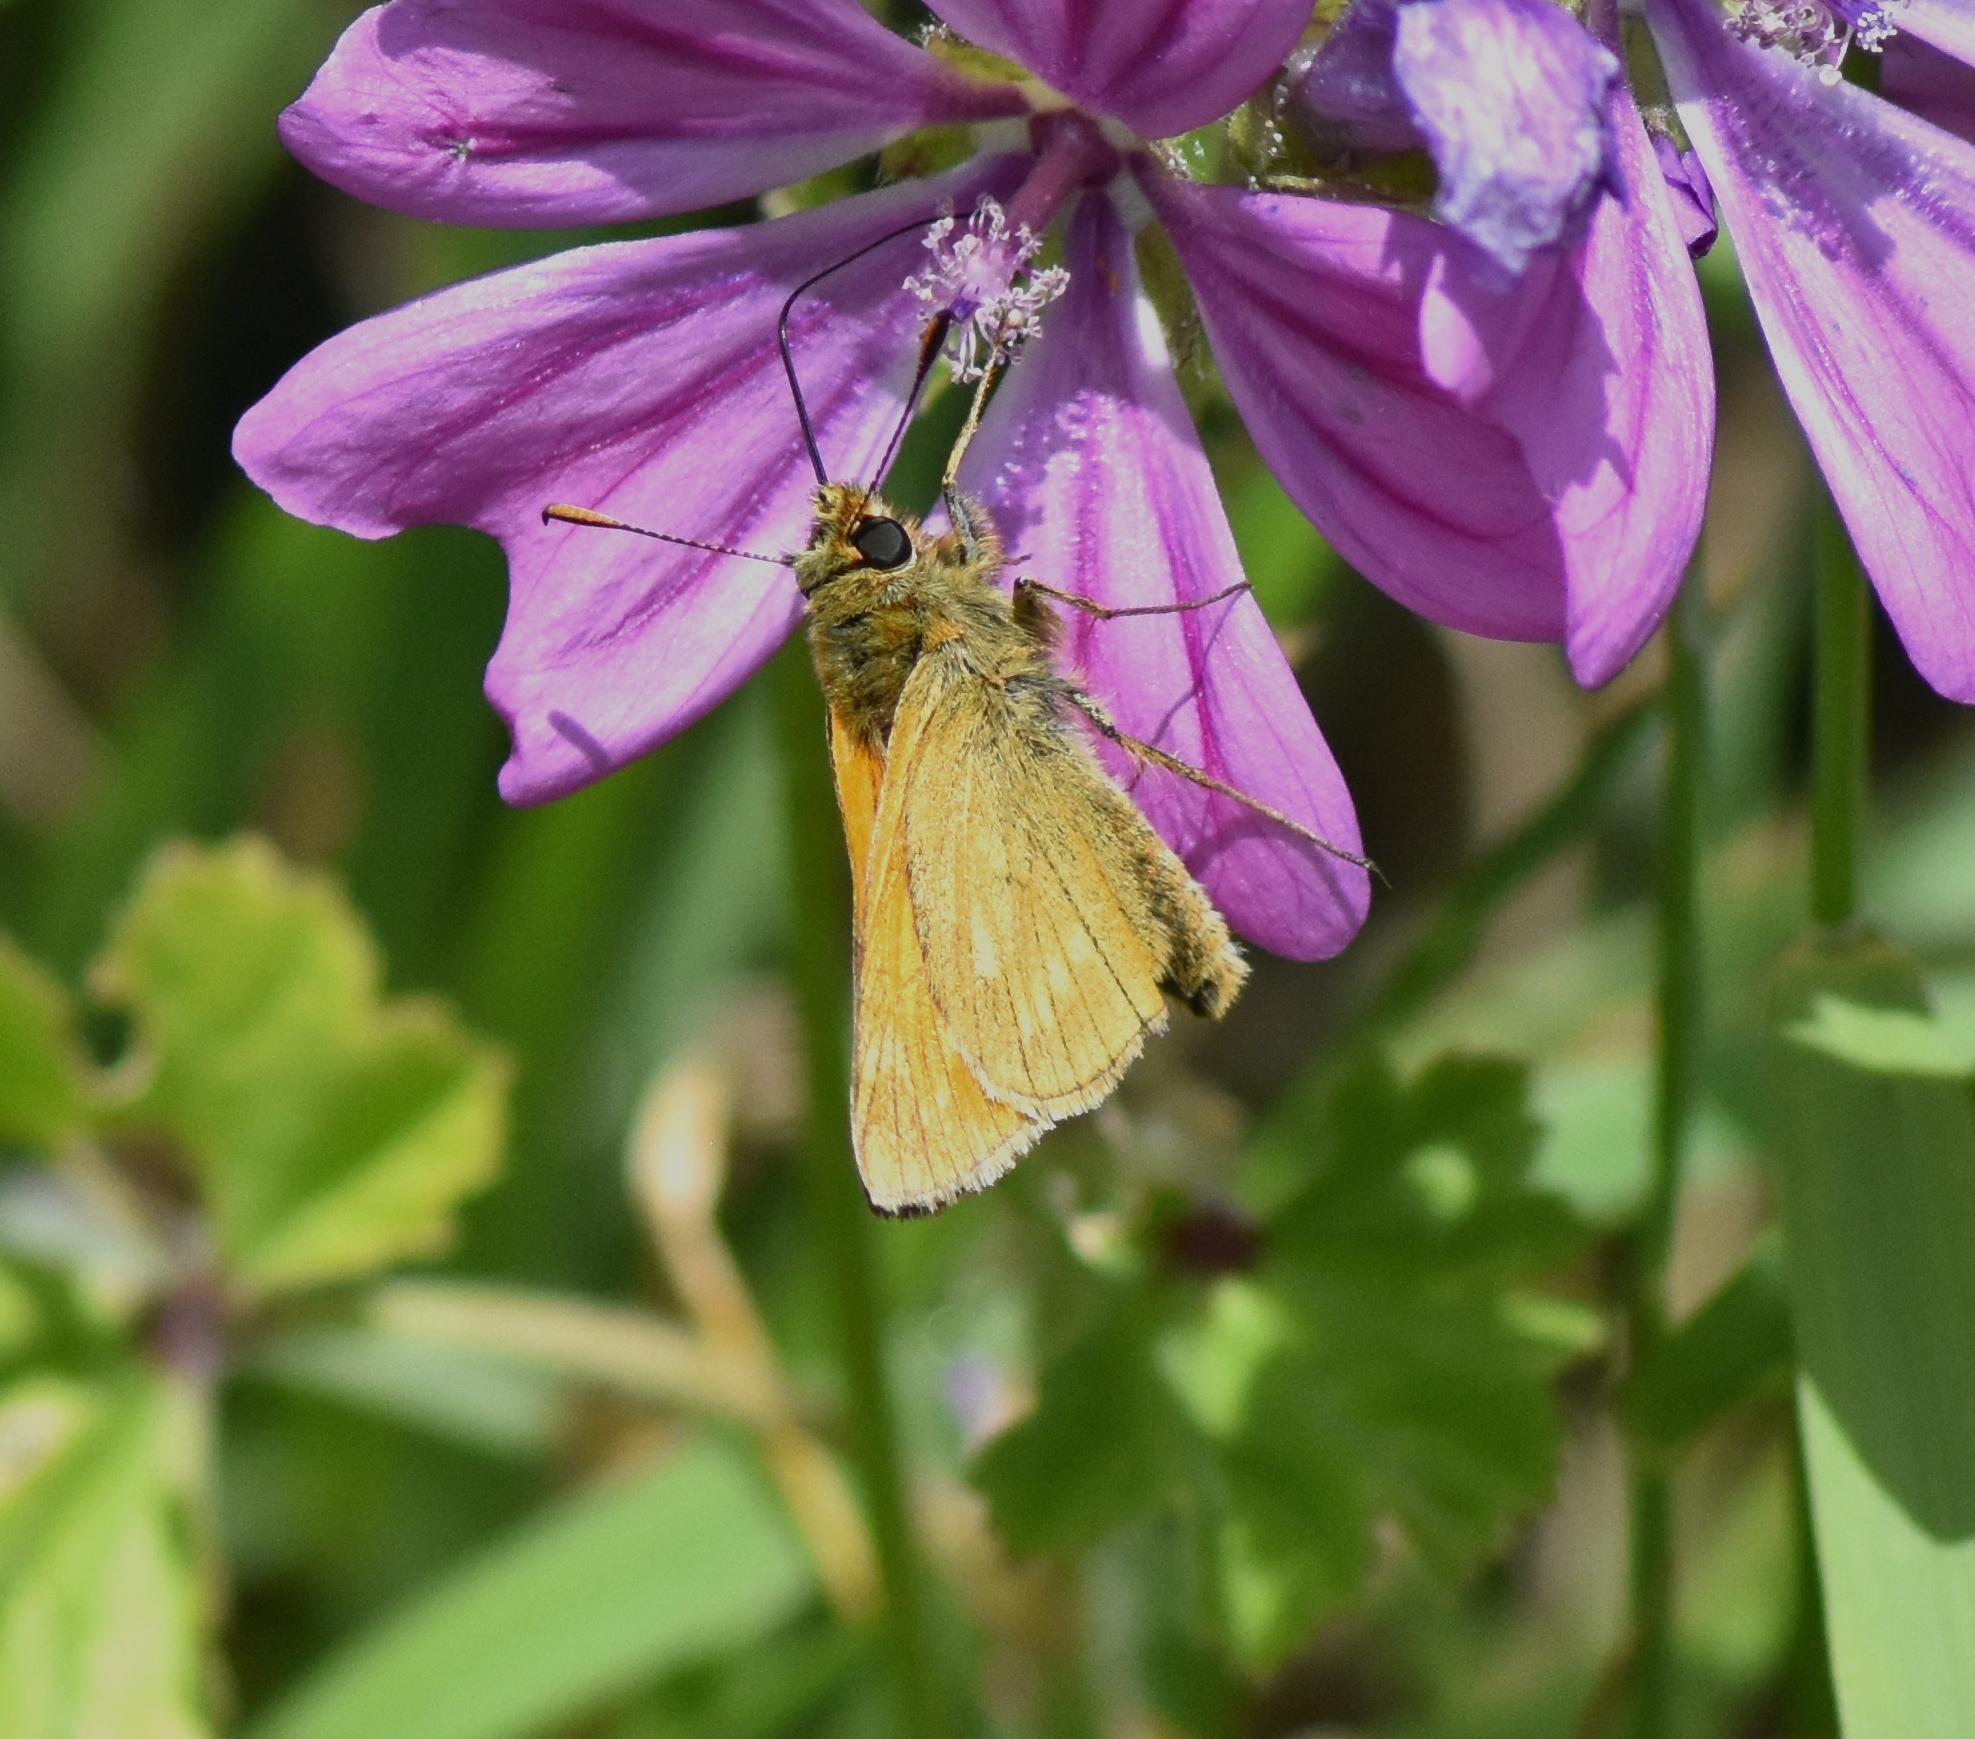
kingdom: Animalia
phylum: Arthropoda
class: Insecta
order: Lepidoptera
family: Hesperiidae
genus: Ochlodes
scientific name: Ochlodes venata
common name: Large skipper
